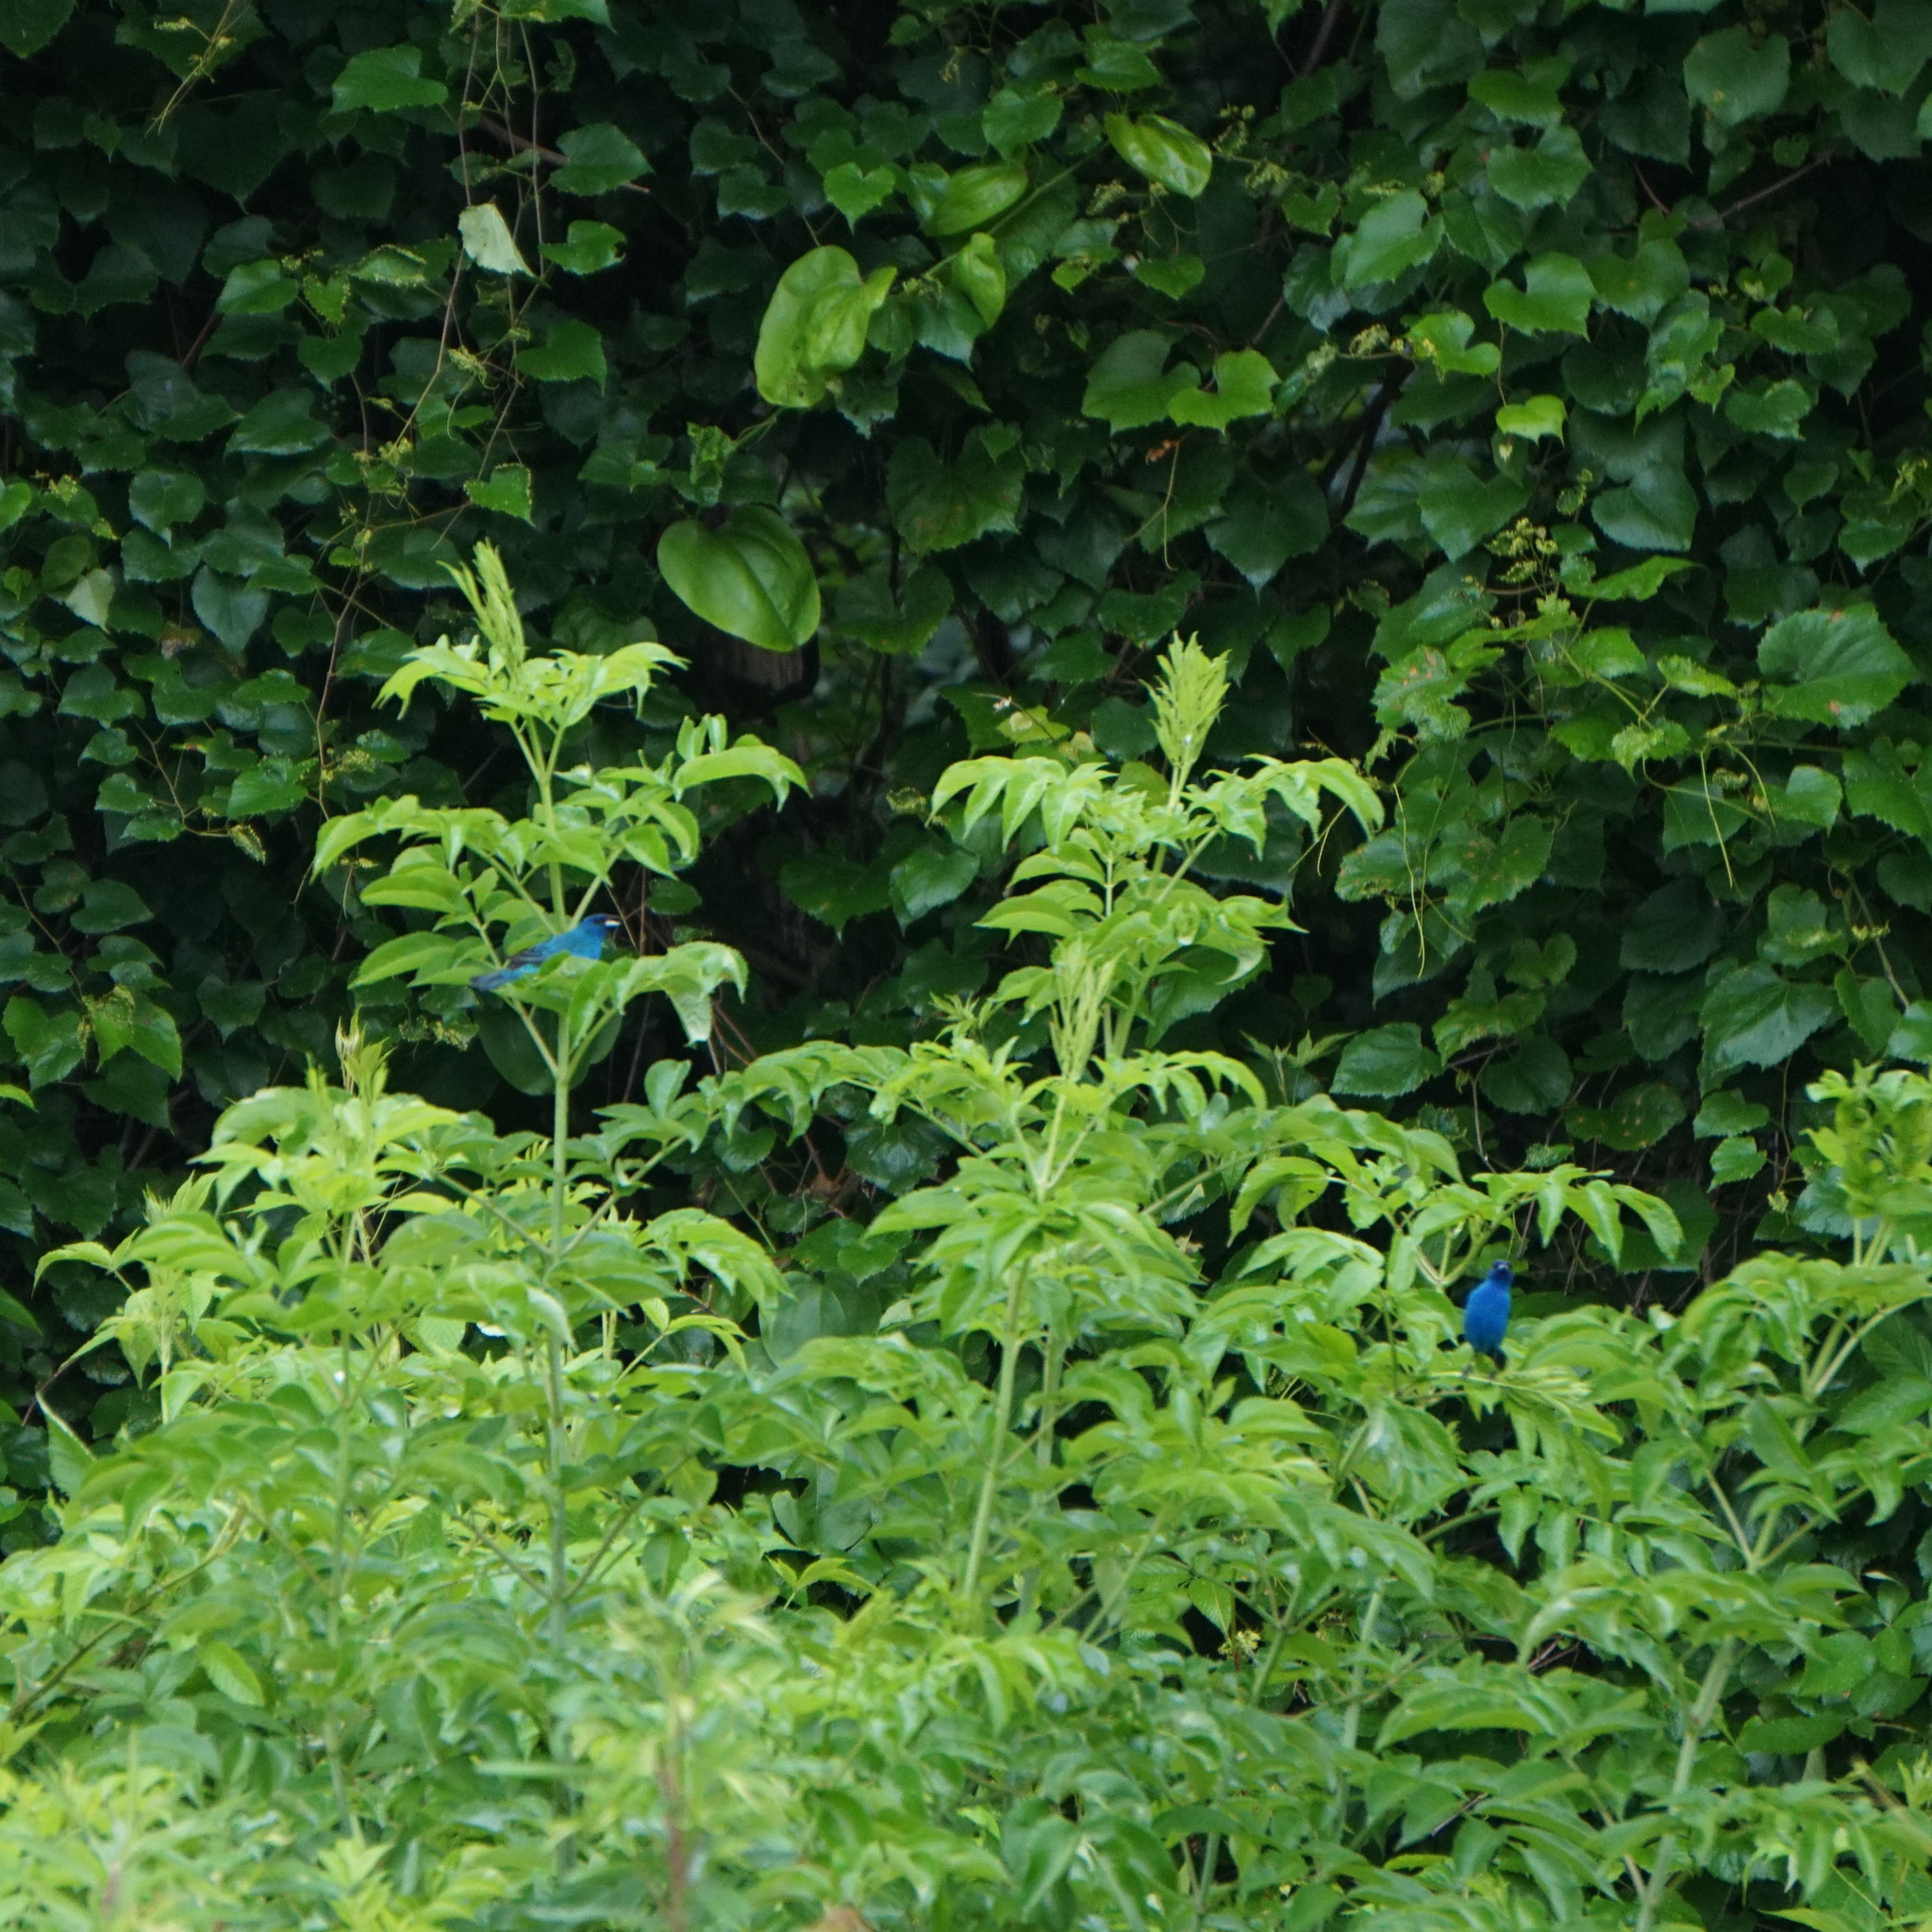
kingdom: Animalia
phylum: Chordata
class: Aves
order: Passeriformes
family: Cardinalidae
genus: Passerina
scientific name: Passerina cyanea
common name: Indigo bunting
